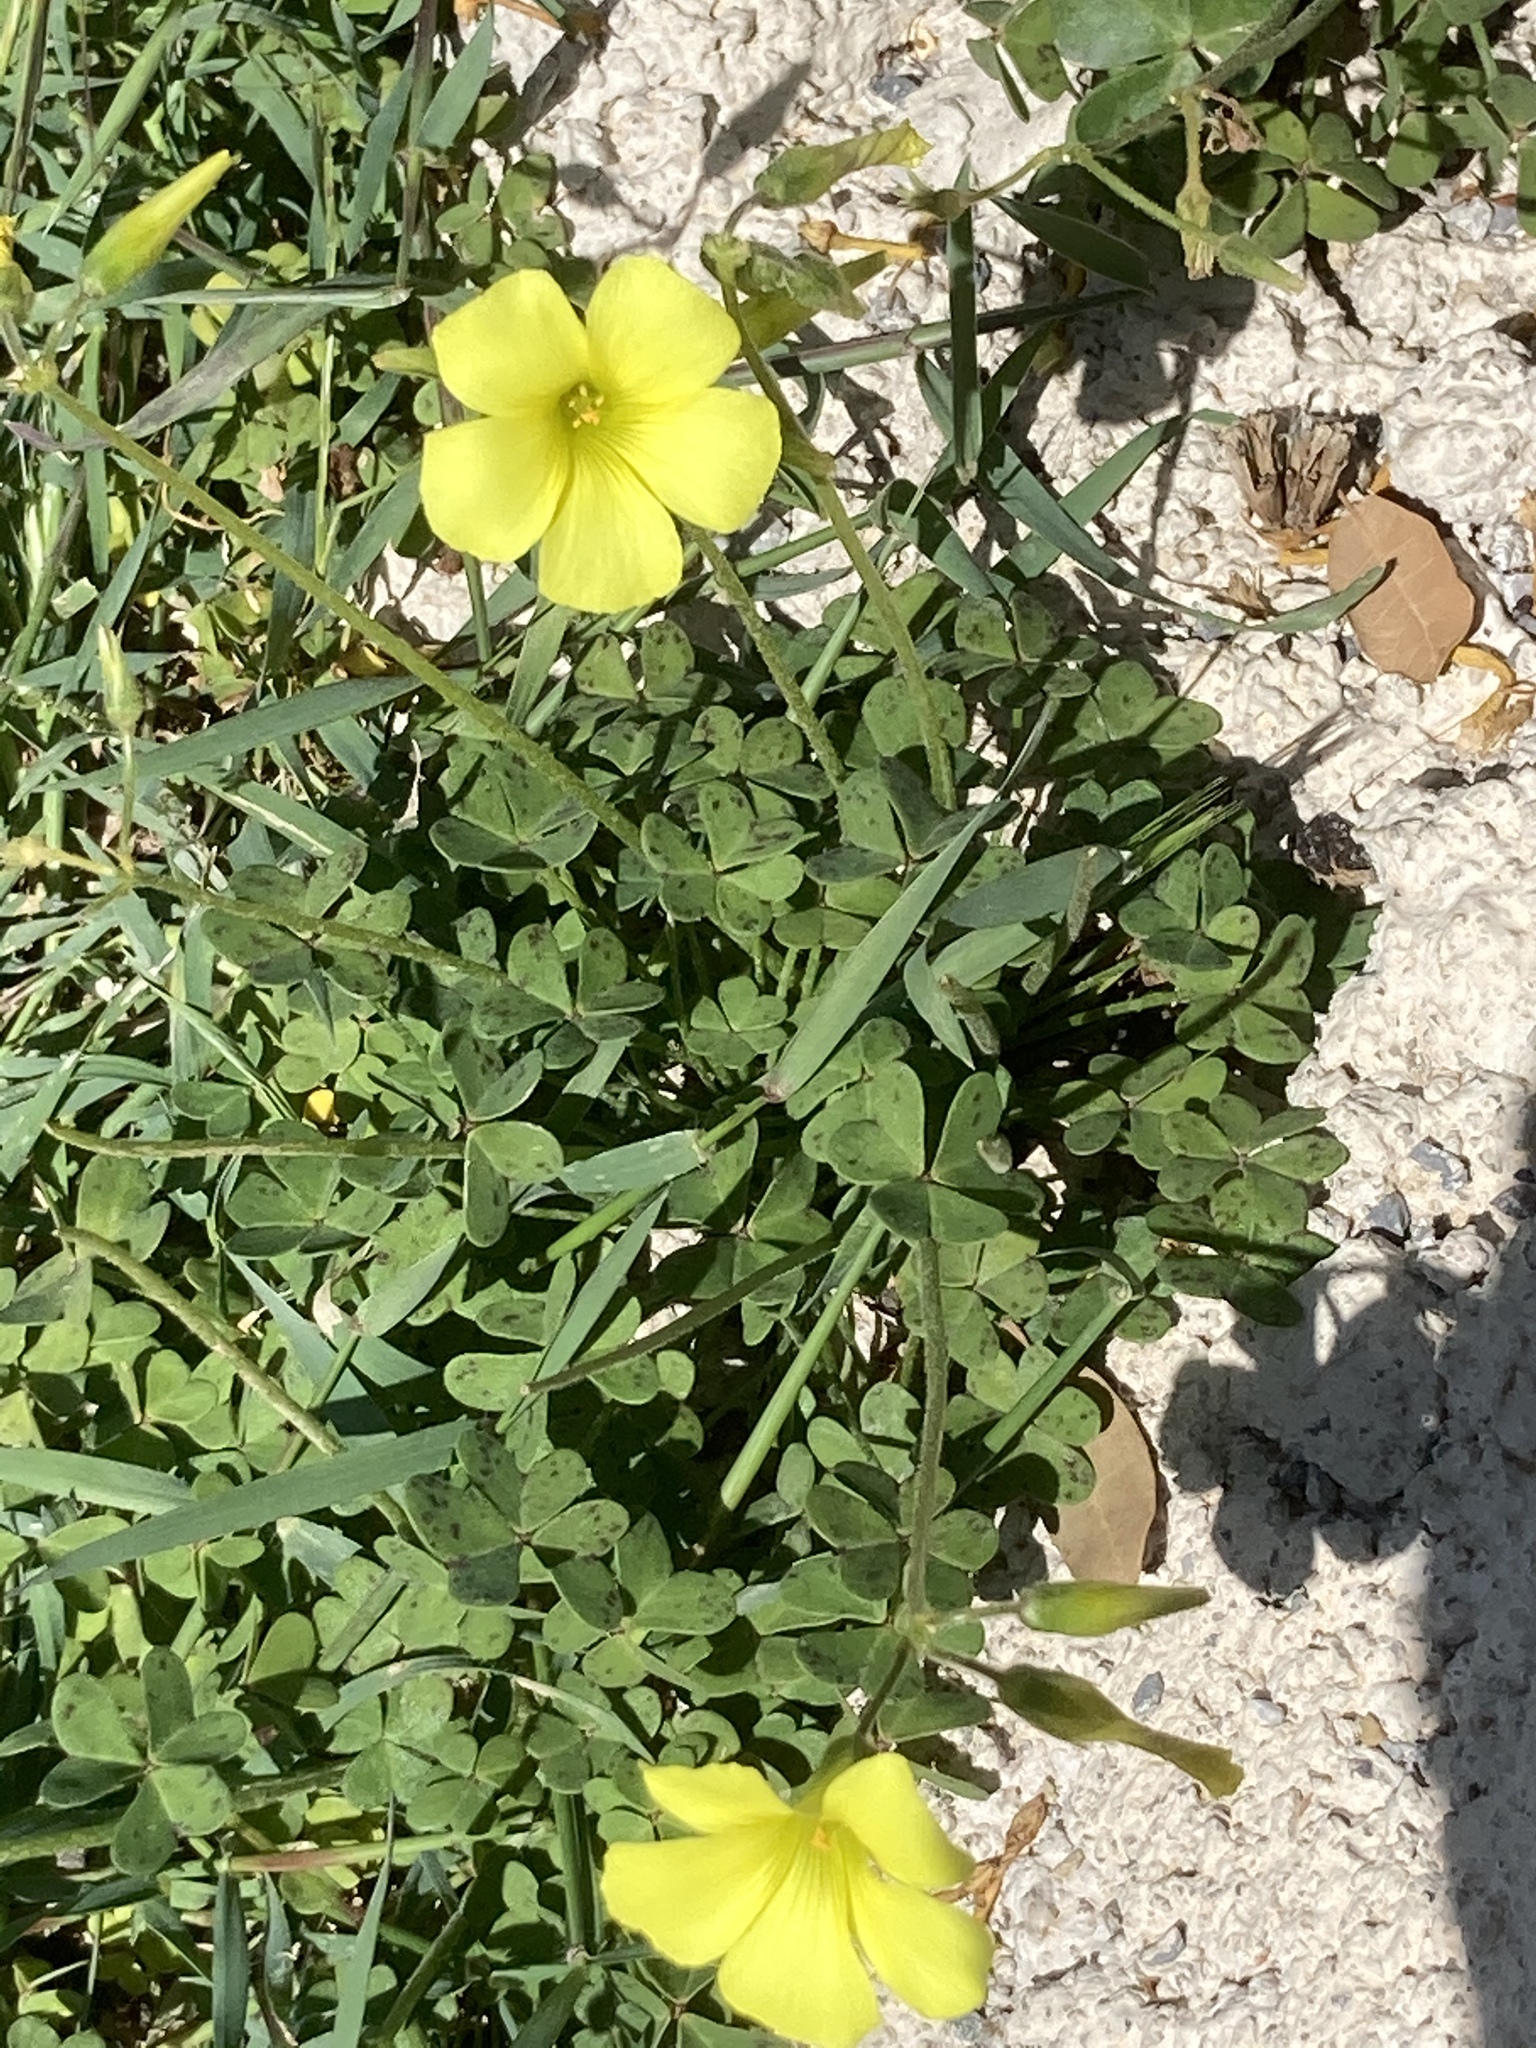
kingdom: Plantae
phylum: Tracheophyta
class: Magnoliopsida
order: Oxalidales
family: Oxalidaceae
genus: Oxalis
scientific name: Oxalis pes-caprae
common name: Bermuda-buttercup
